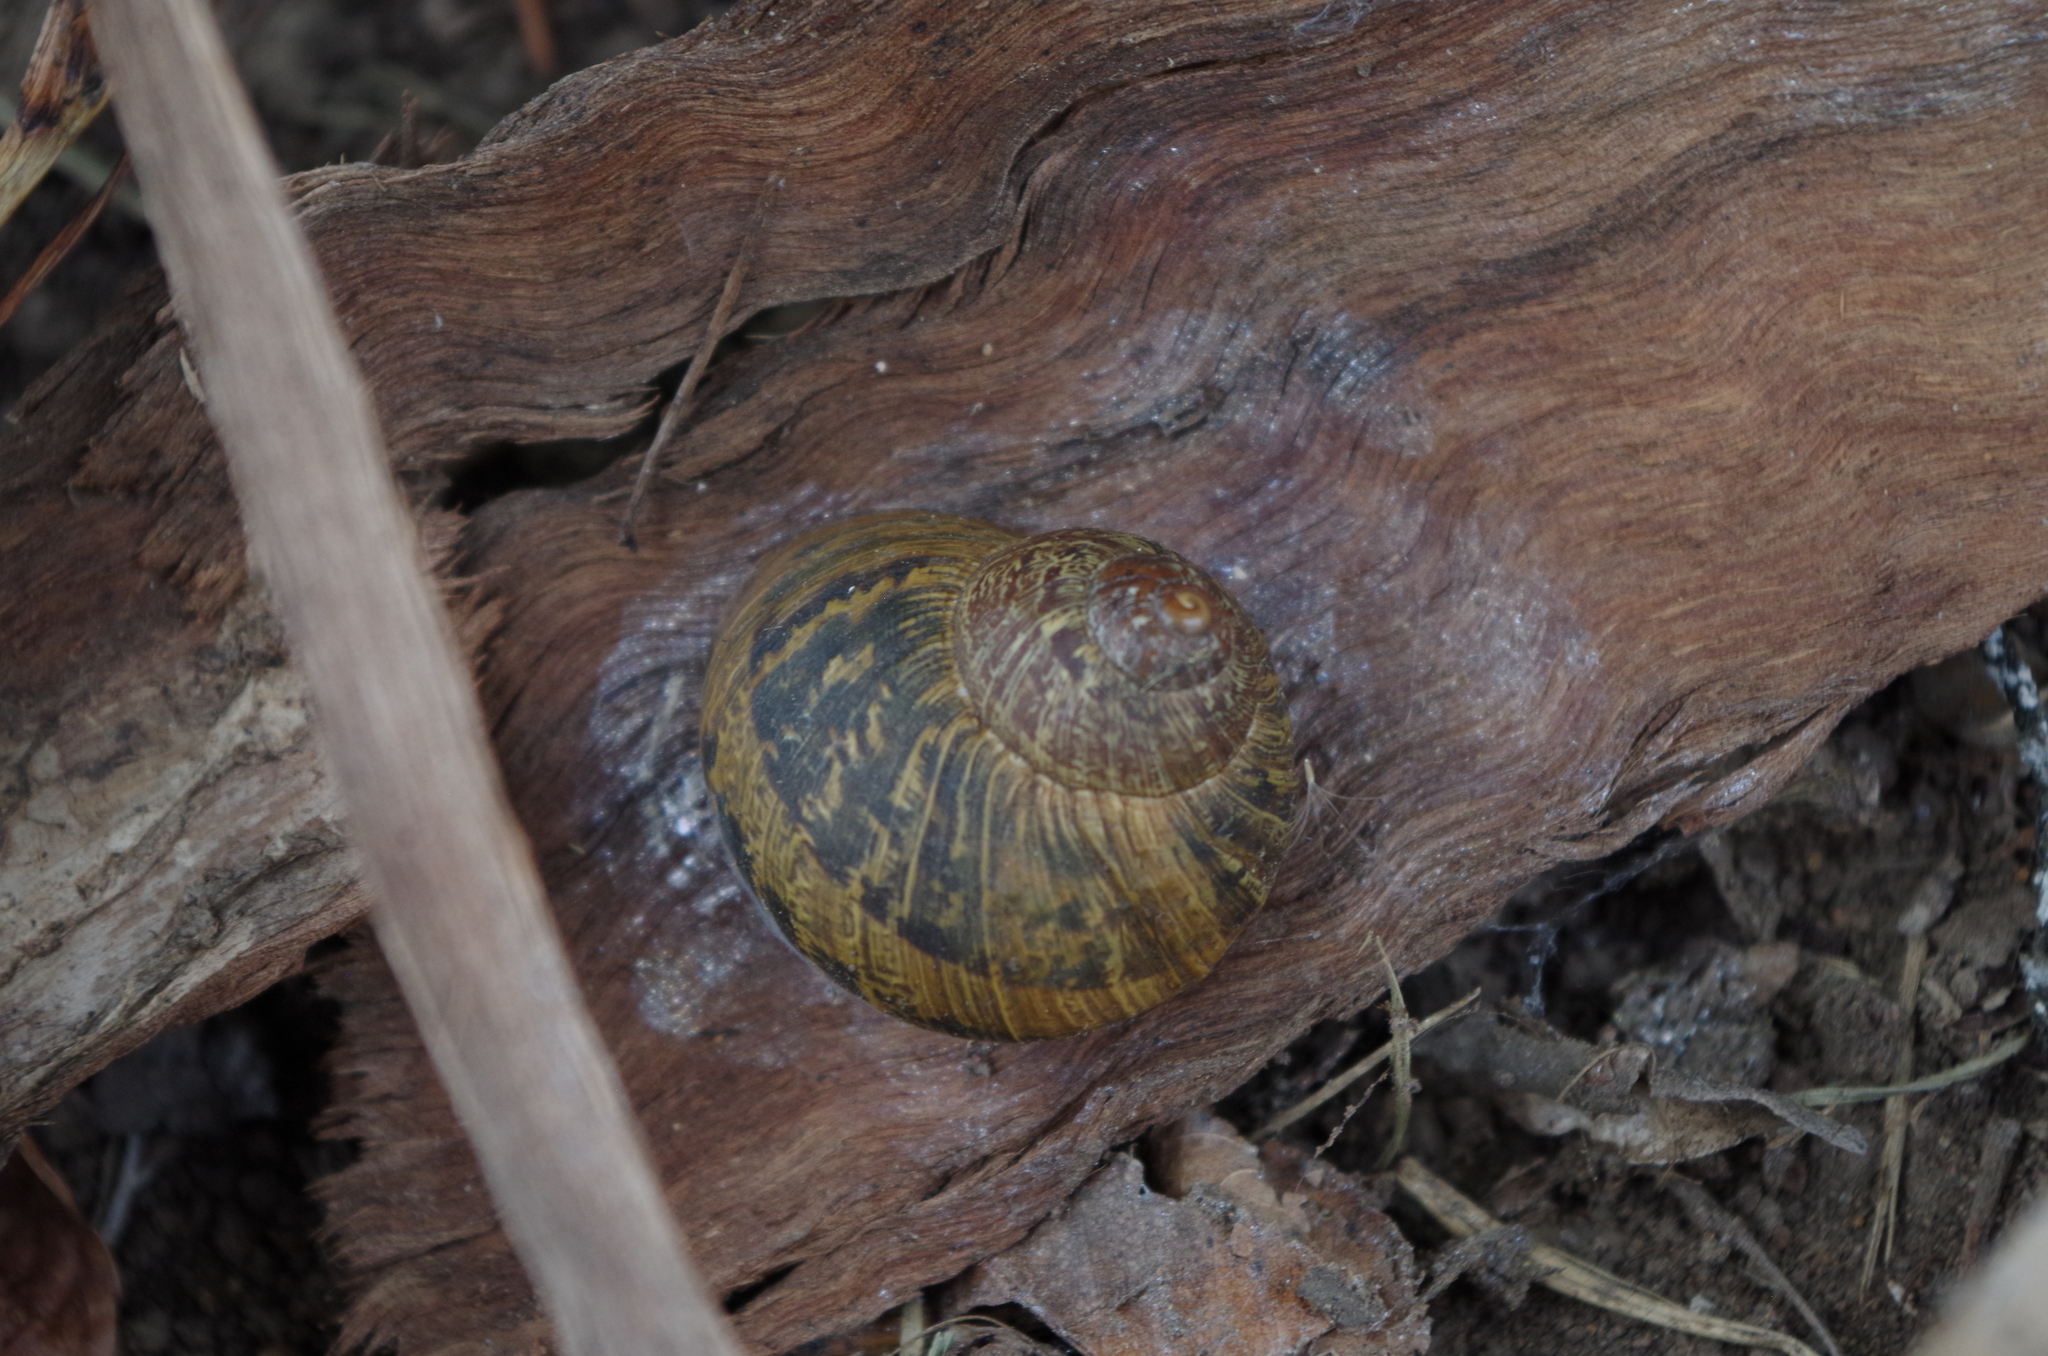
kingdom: Animalia
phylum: Mollusca
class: Gastropoda
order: Stylommatophora
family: Helicidae
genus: Cornu
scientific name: Cornu aspersum
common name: Brown garden snail
